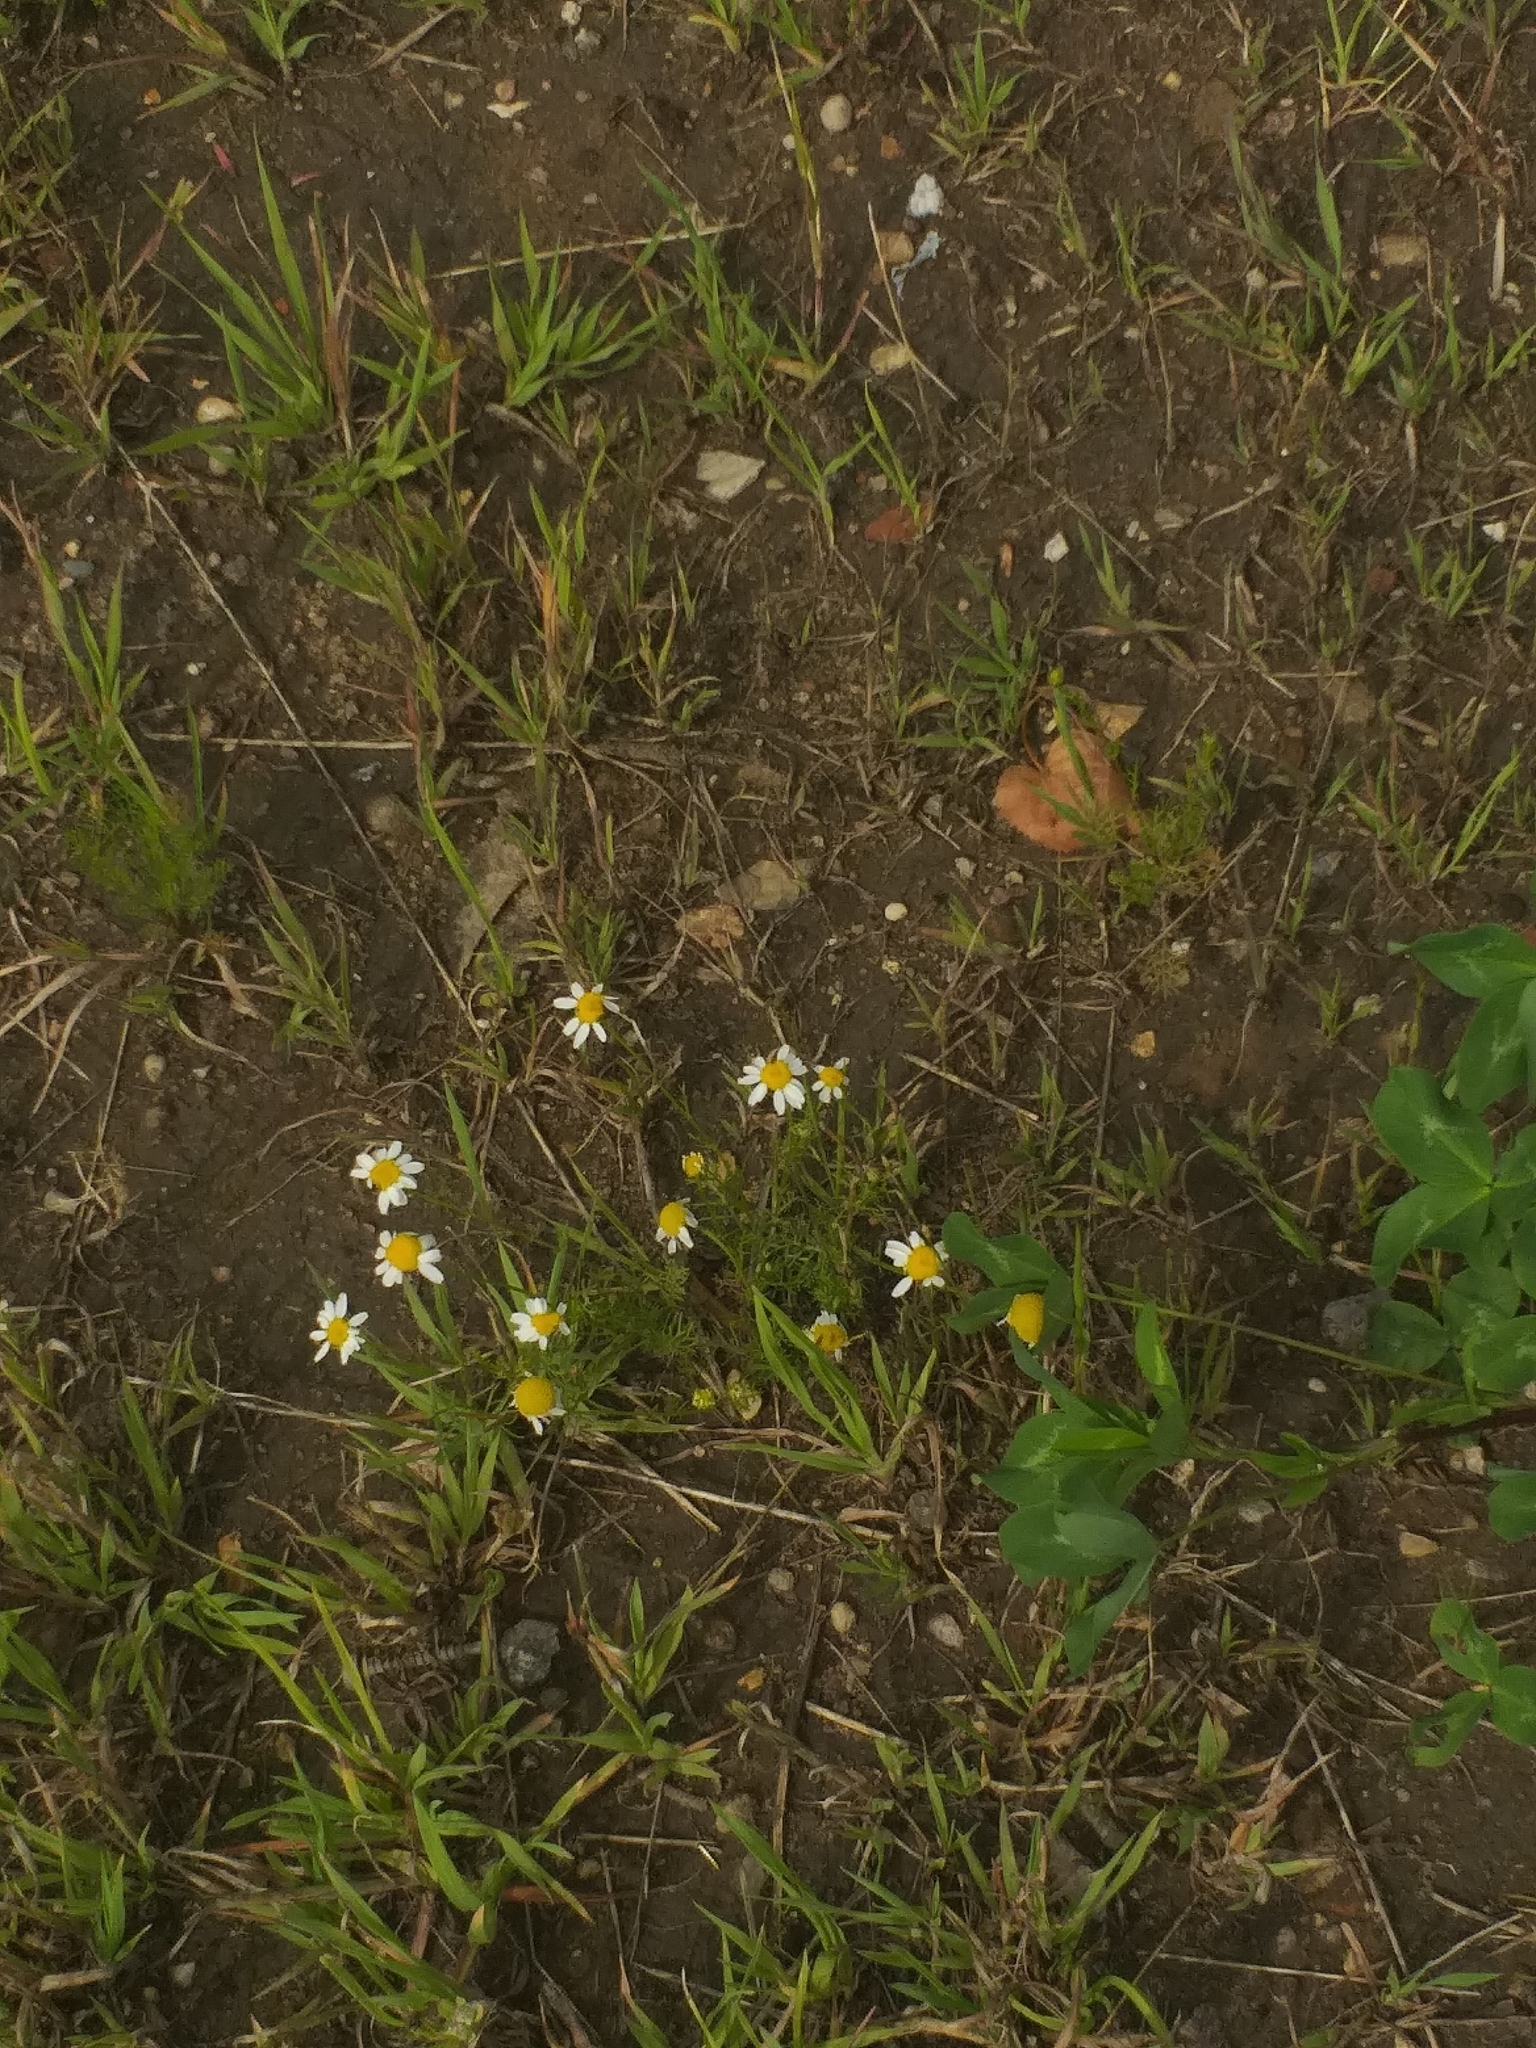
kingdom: Plantae
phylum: Tracheophyta
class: Magnoliopsida
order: Asterales
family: Asteraceae
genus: Tripleurospermum
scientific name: Tripleurospermum inodorum
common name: Scentless mayweed
